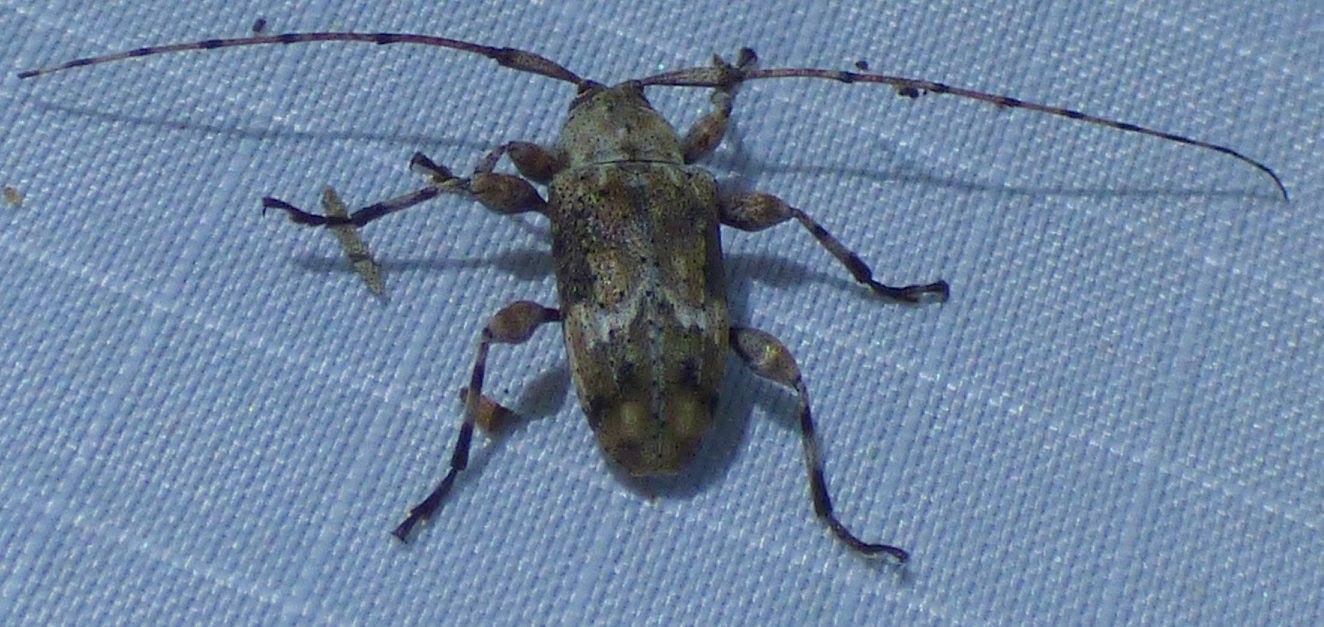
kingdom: Animalia
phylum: Arthropoda
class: Insecta
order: Coleoptera
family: Cerambycidae
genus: Leptostylopsis
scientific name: Leptostylopsis planidorsus
